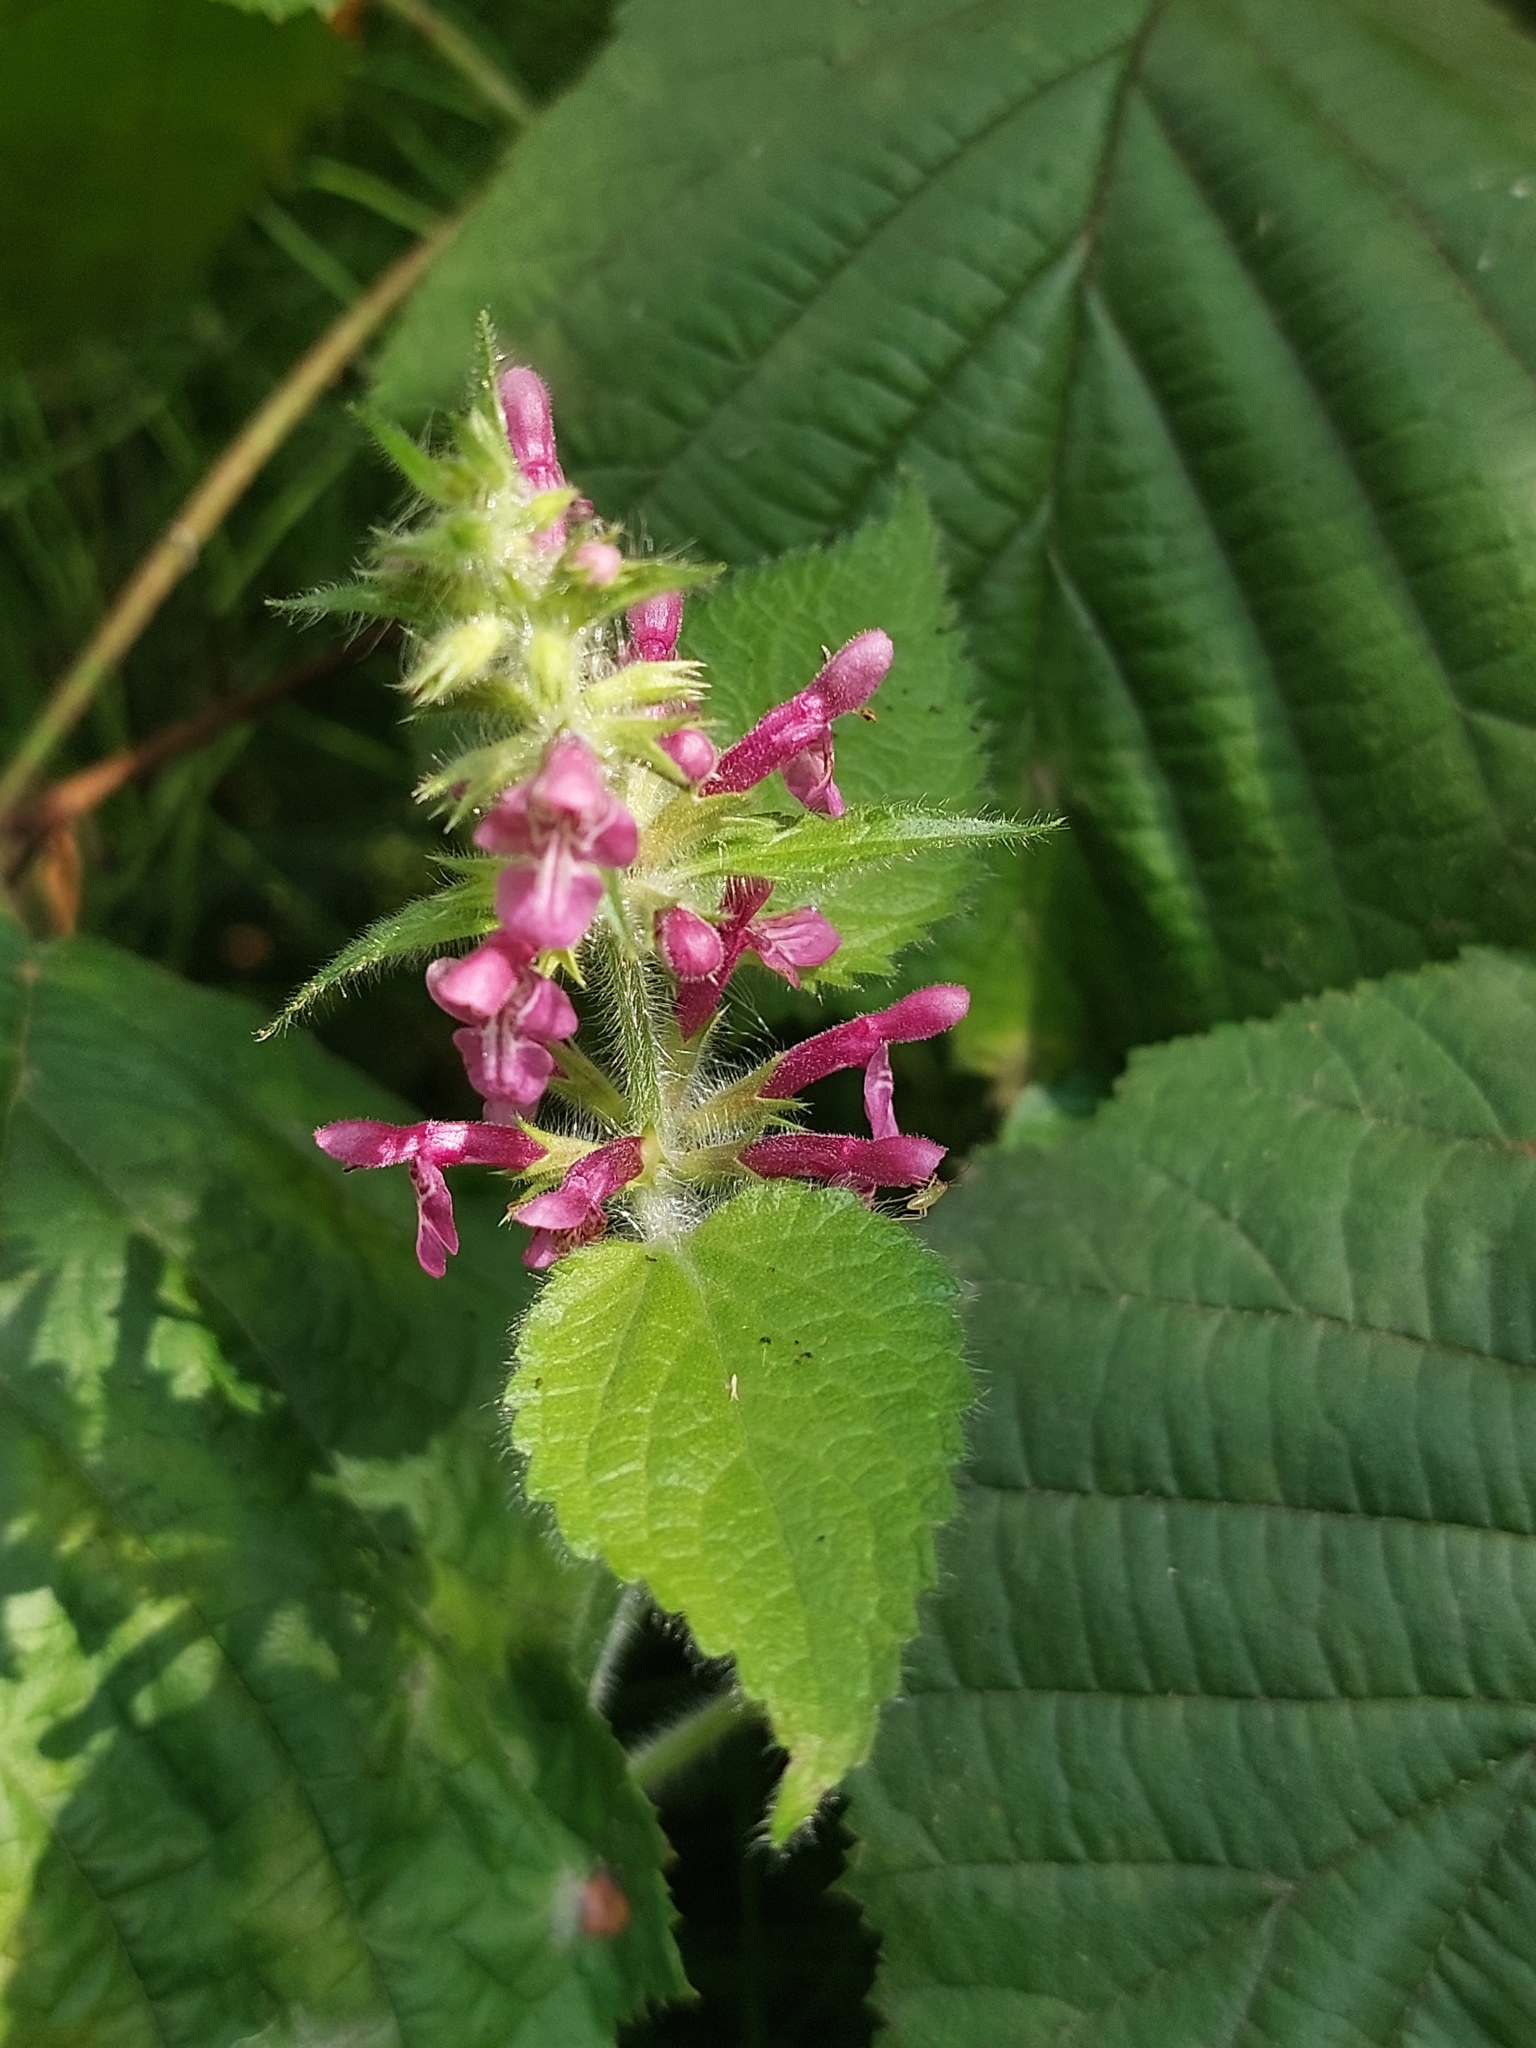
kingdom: Plantae
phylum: Tracheophyta
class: Magnoliopsida
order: Lamiales
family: Lamiaceae
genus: Stachys
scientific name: Stachys sylvatica
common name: Hedge woundwort
